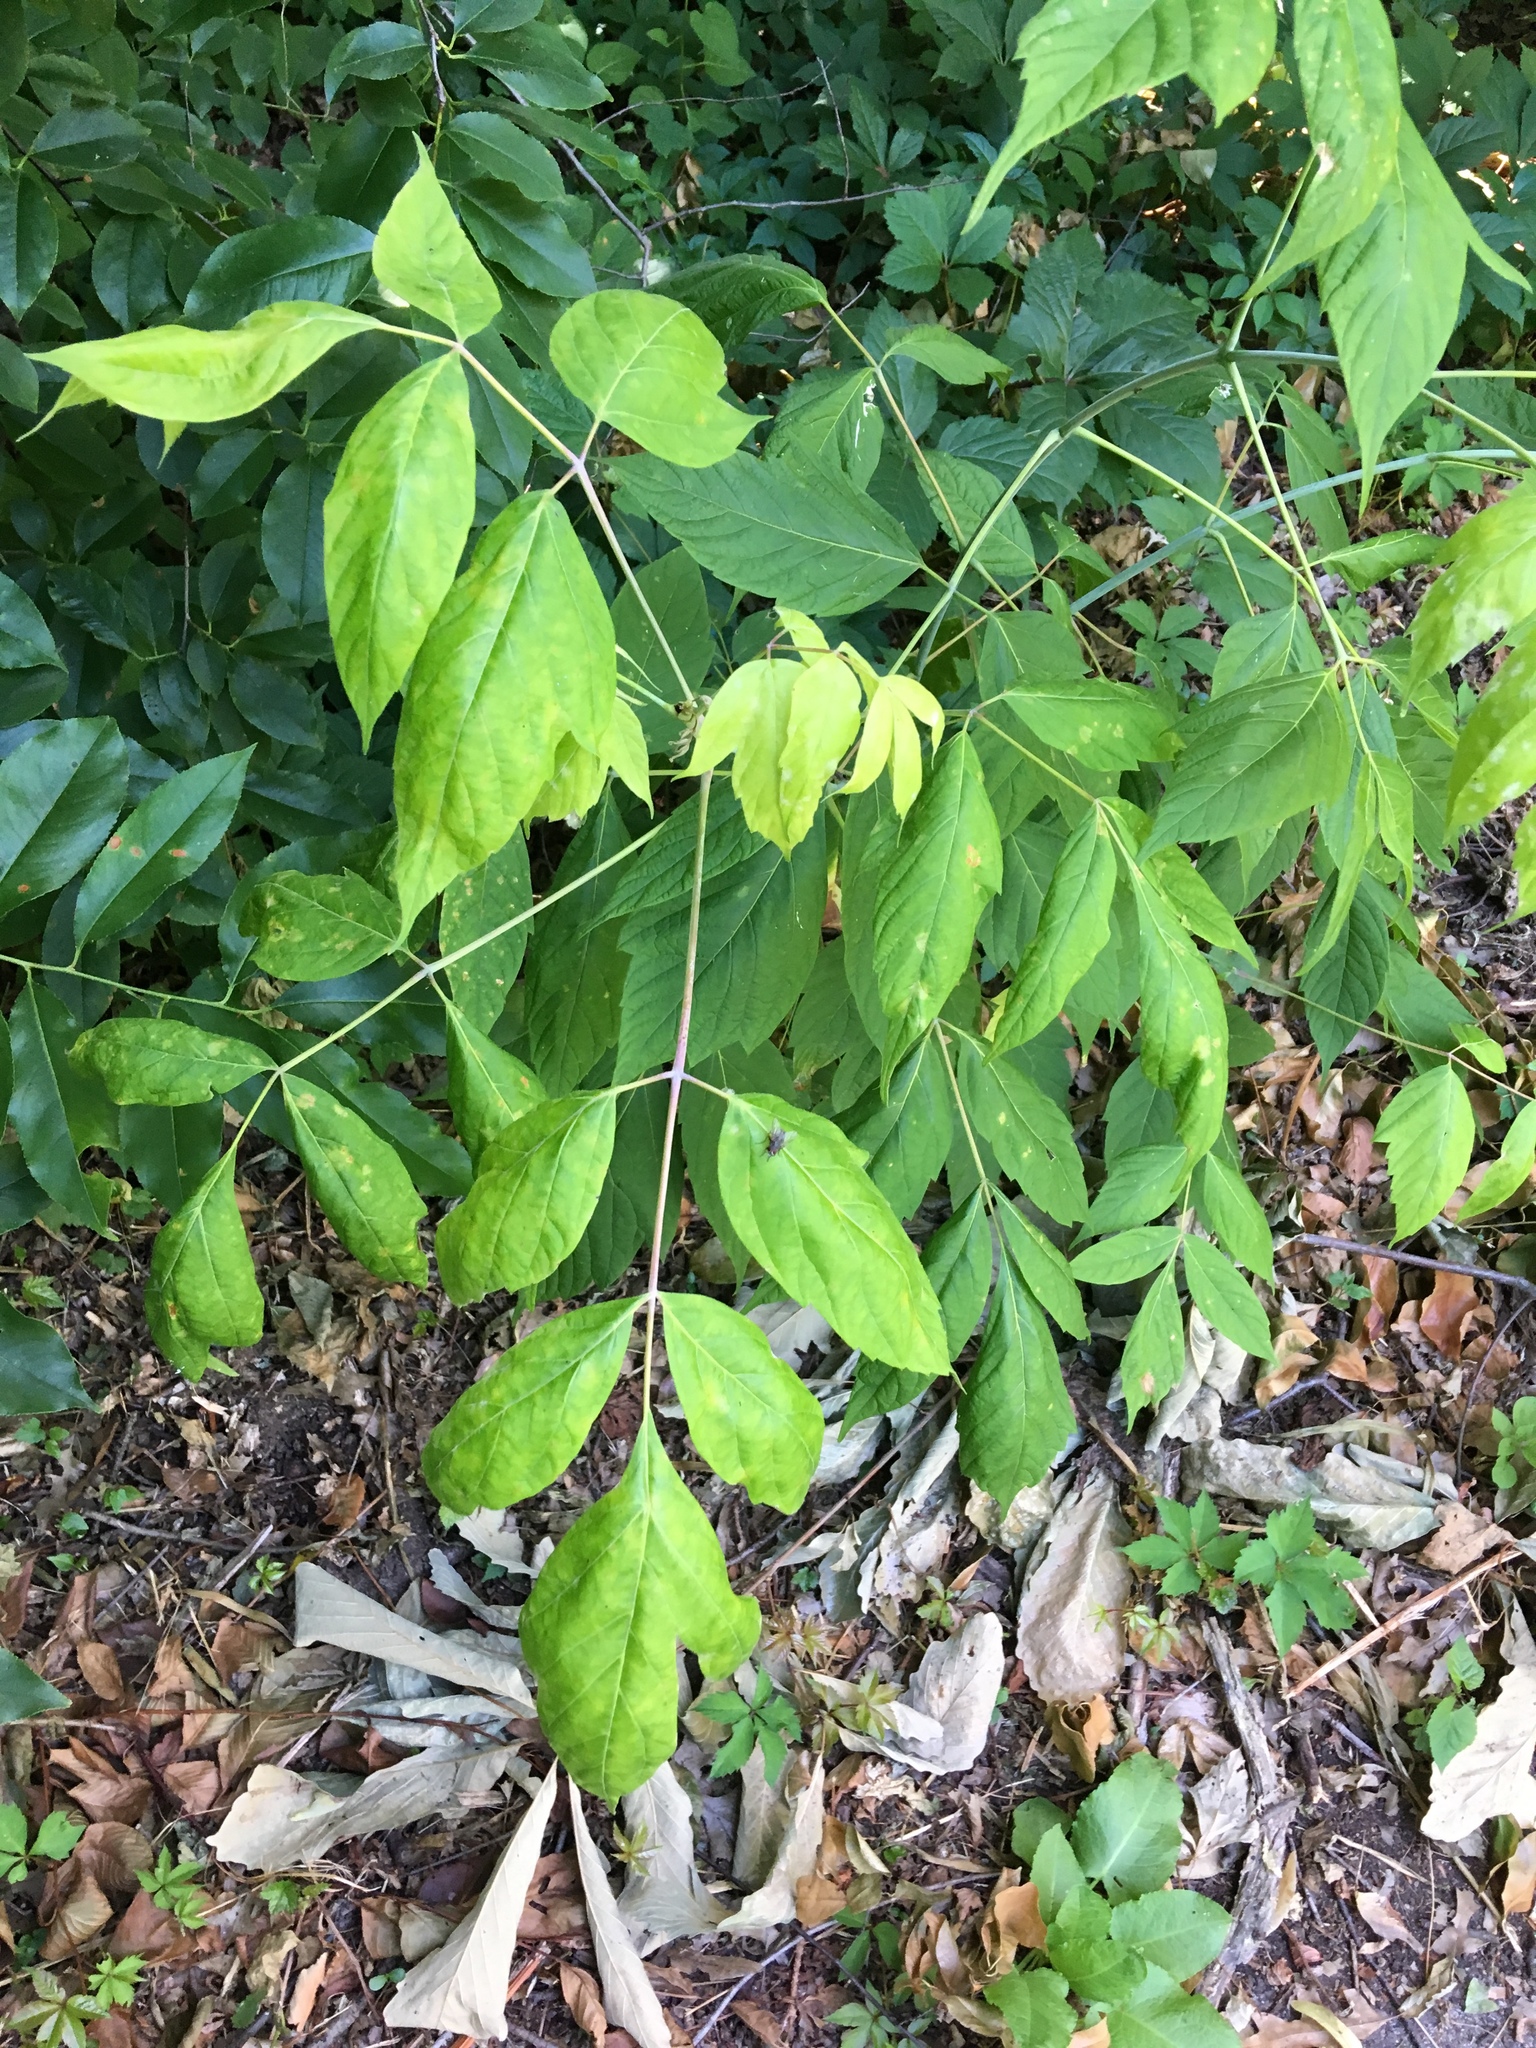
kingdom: Plantae
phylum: Tracheophyta
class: Magnoliopsida
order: Sapindales
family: Sapindaceae
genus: Acer
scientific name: Acer negundo
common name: Ashleaf maple
